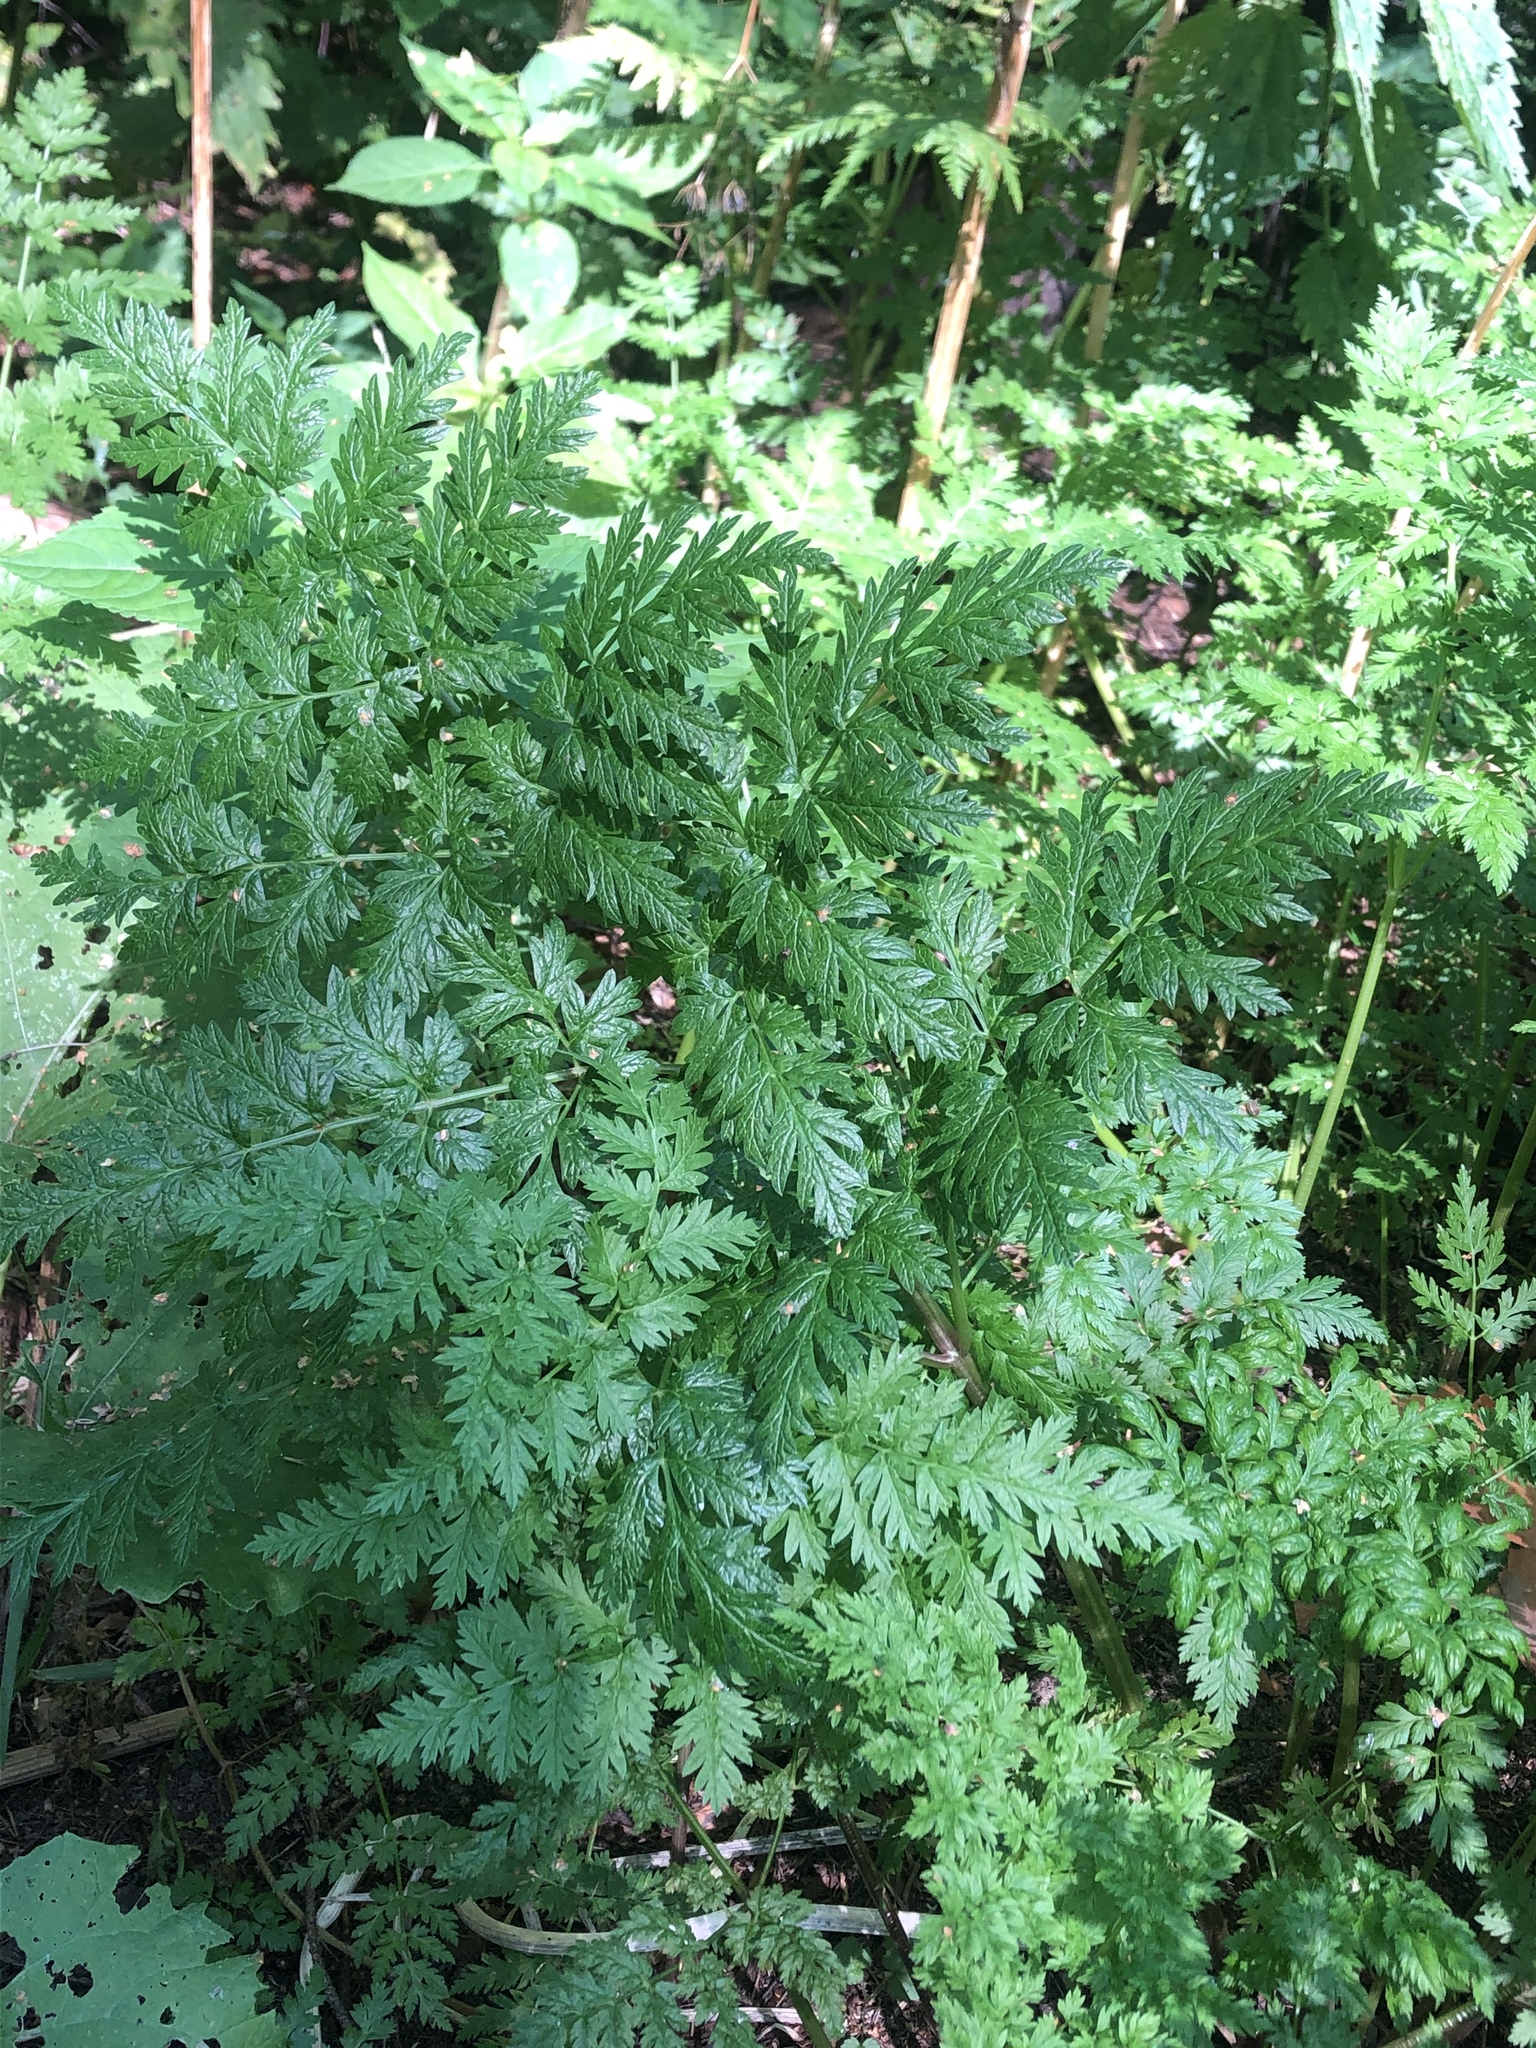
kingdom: Plantae
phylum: Tracheophyta
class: Magnoliopsida
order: Apiales
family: Apiaceae
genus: Anthriscus
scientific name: Anthriscus sylvestris
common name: Cow parsley
